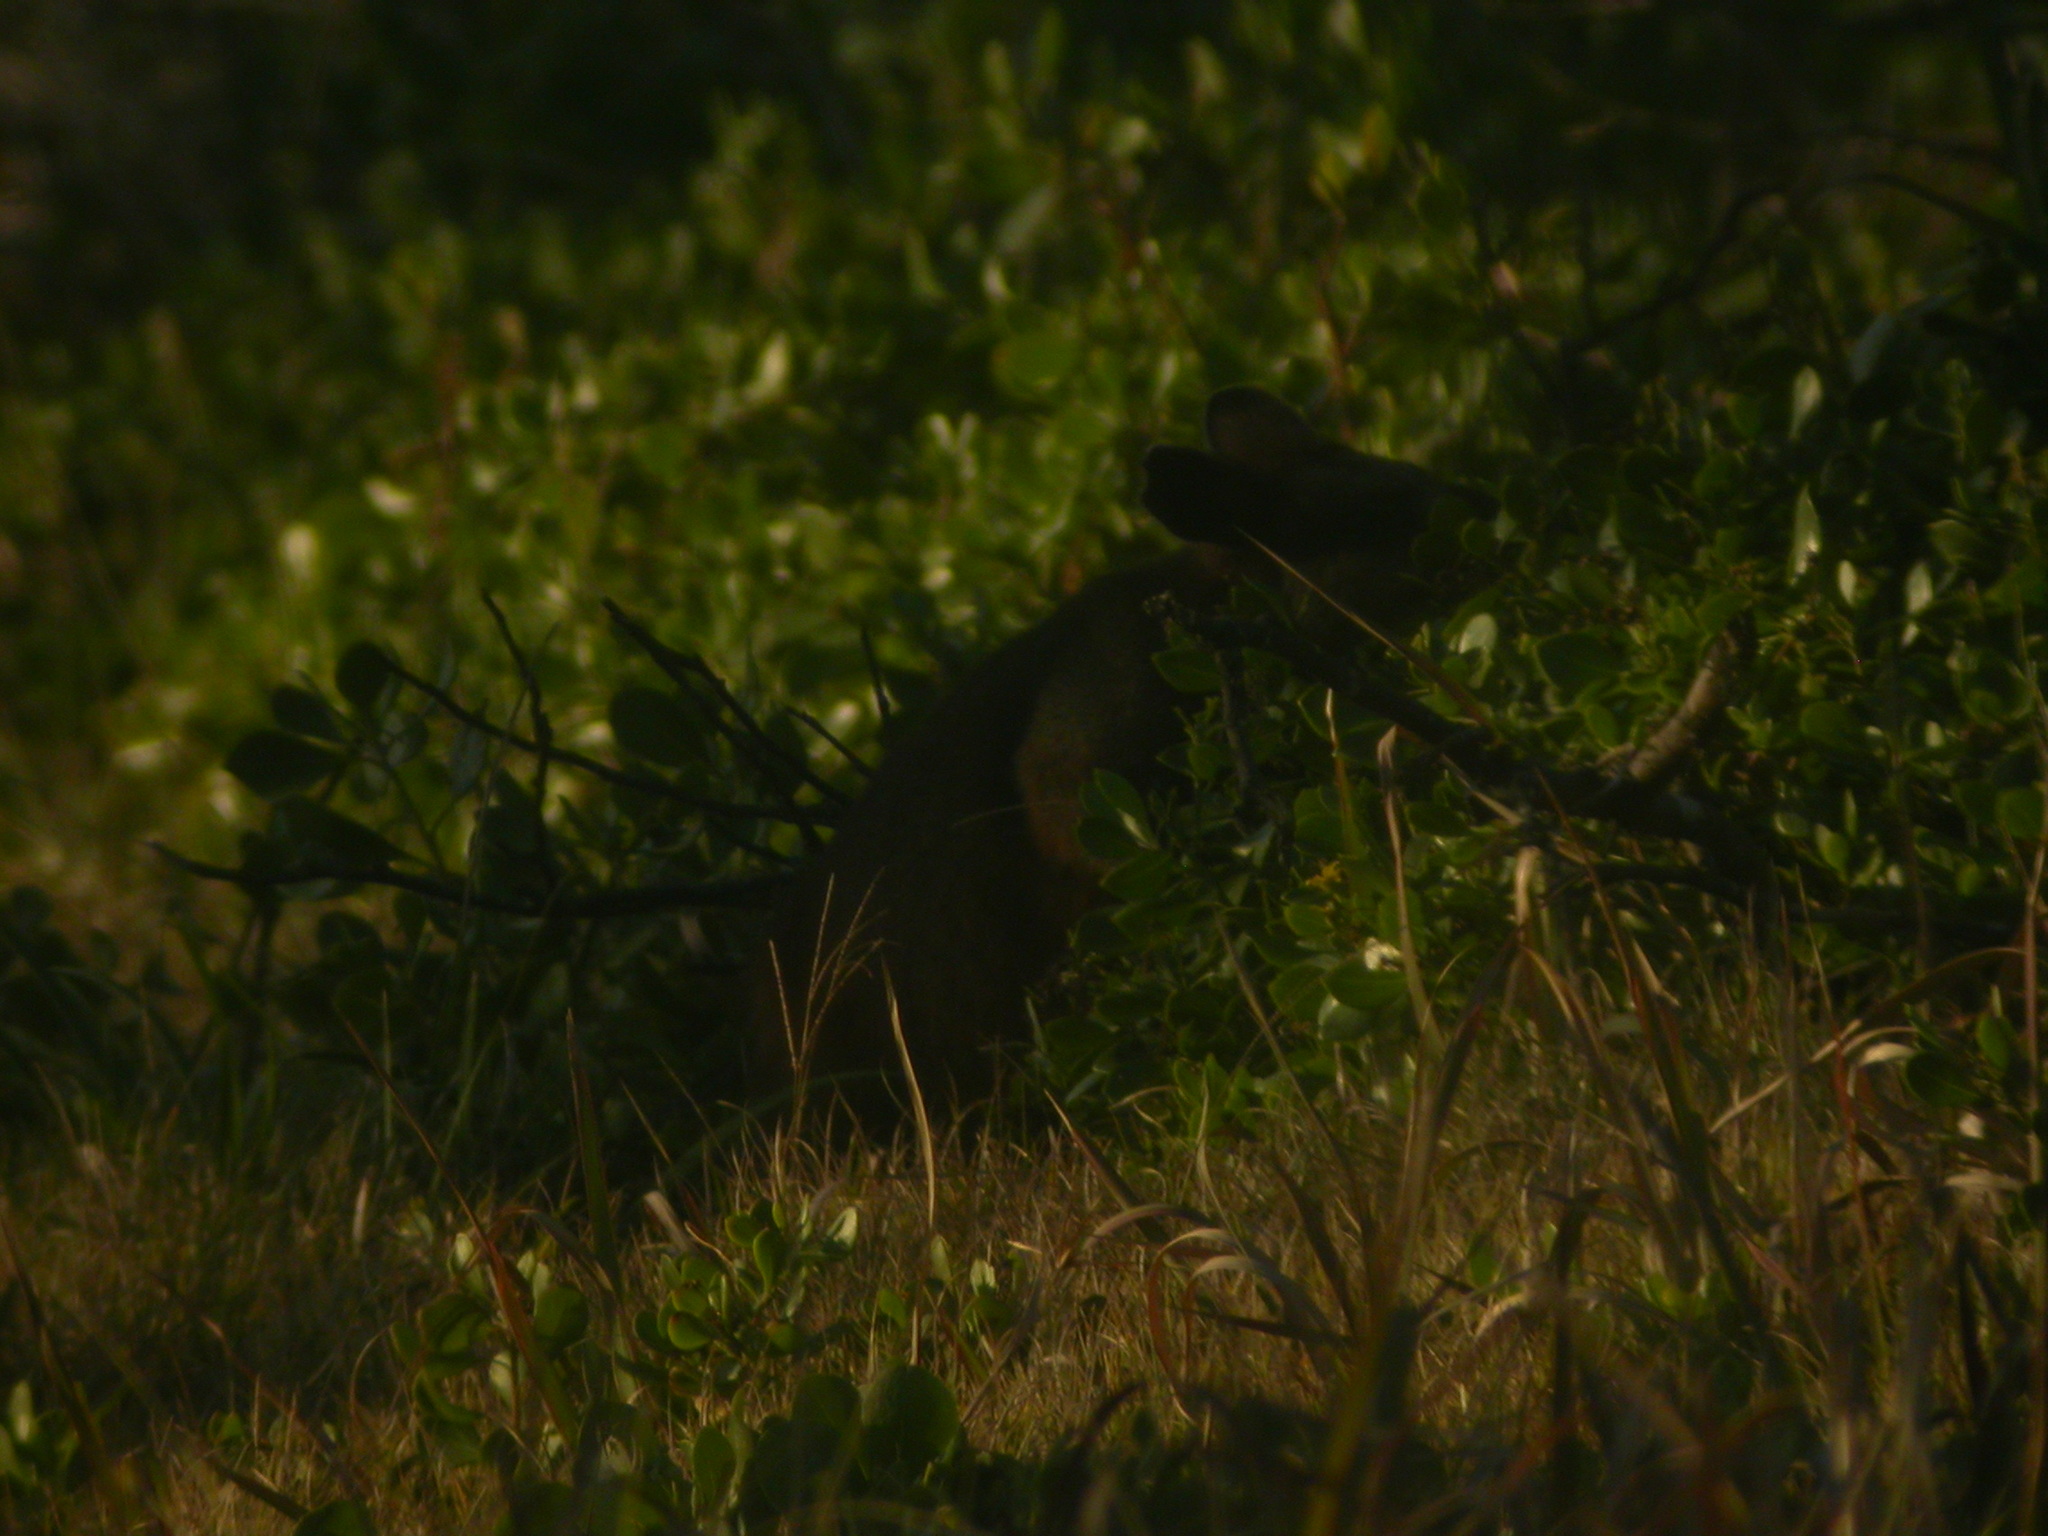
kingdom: Animalia
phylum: Chordata
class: Mammalia
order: Diprotodontia
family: Macropodidae
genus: Wallabia
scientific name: Wallabia bicolor
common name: Swamp wallaby
